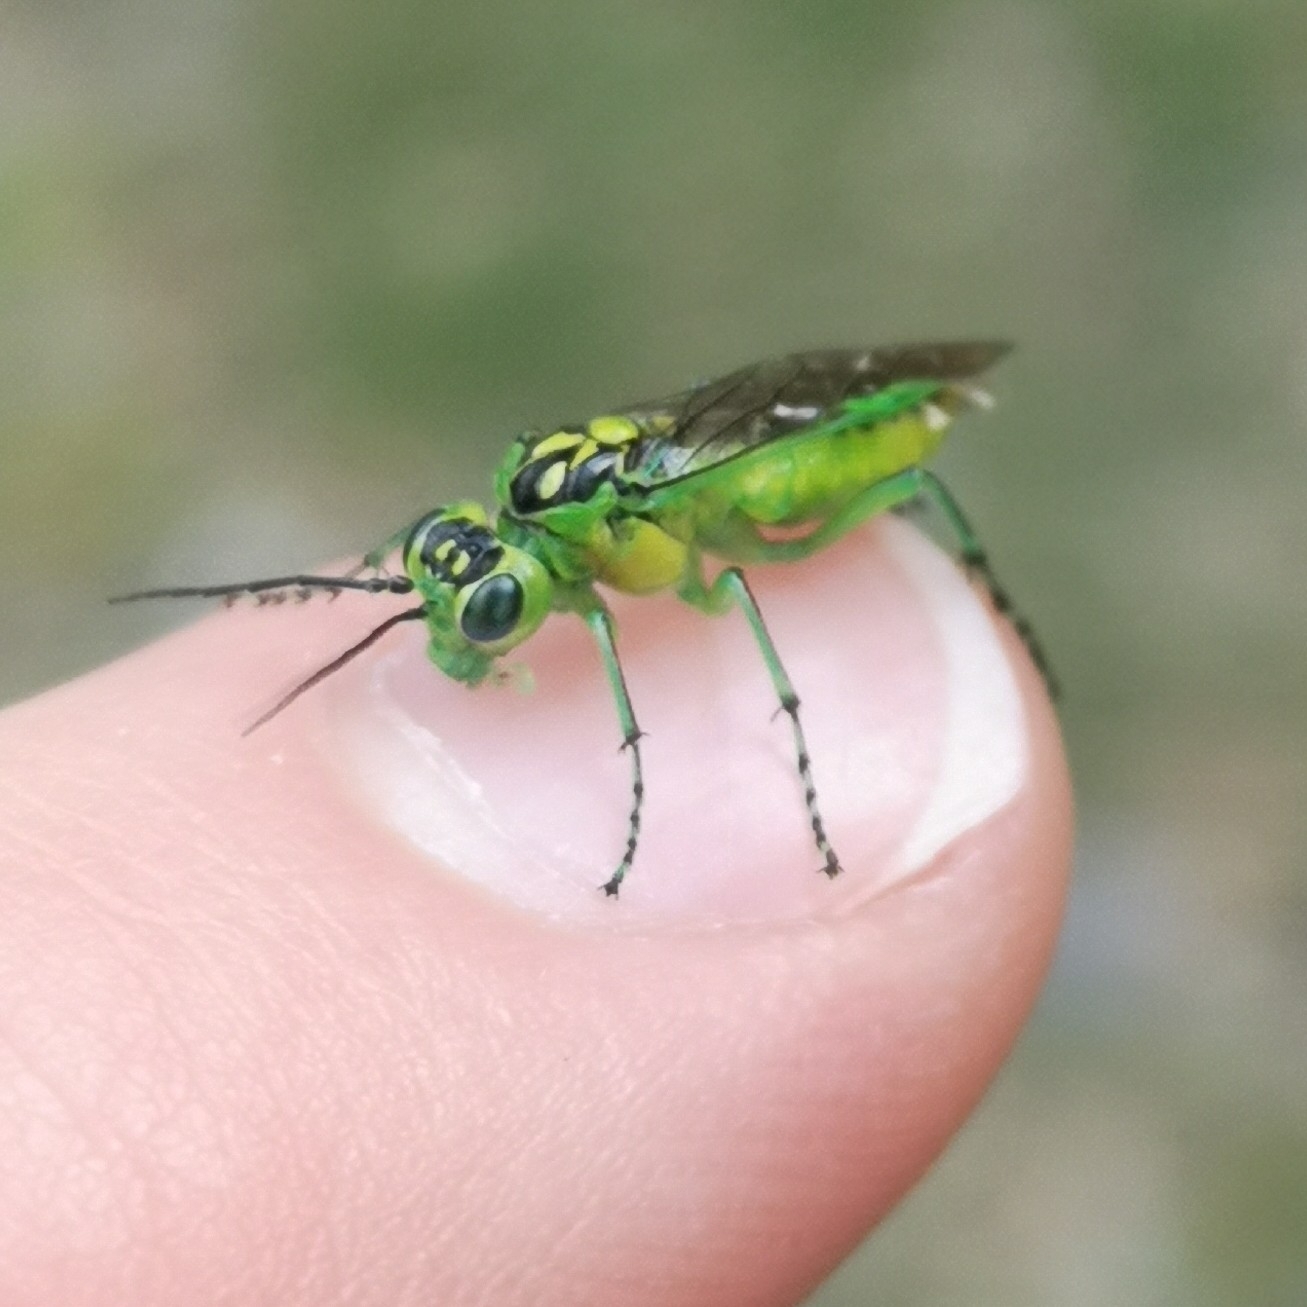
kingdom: Animalia
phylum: Arthropoda
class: Insecta
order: Hymenoptera
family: Tenthredinidae
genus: Rhogogaster
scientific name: Rhogogaster scalaris
